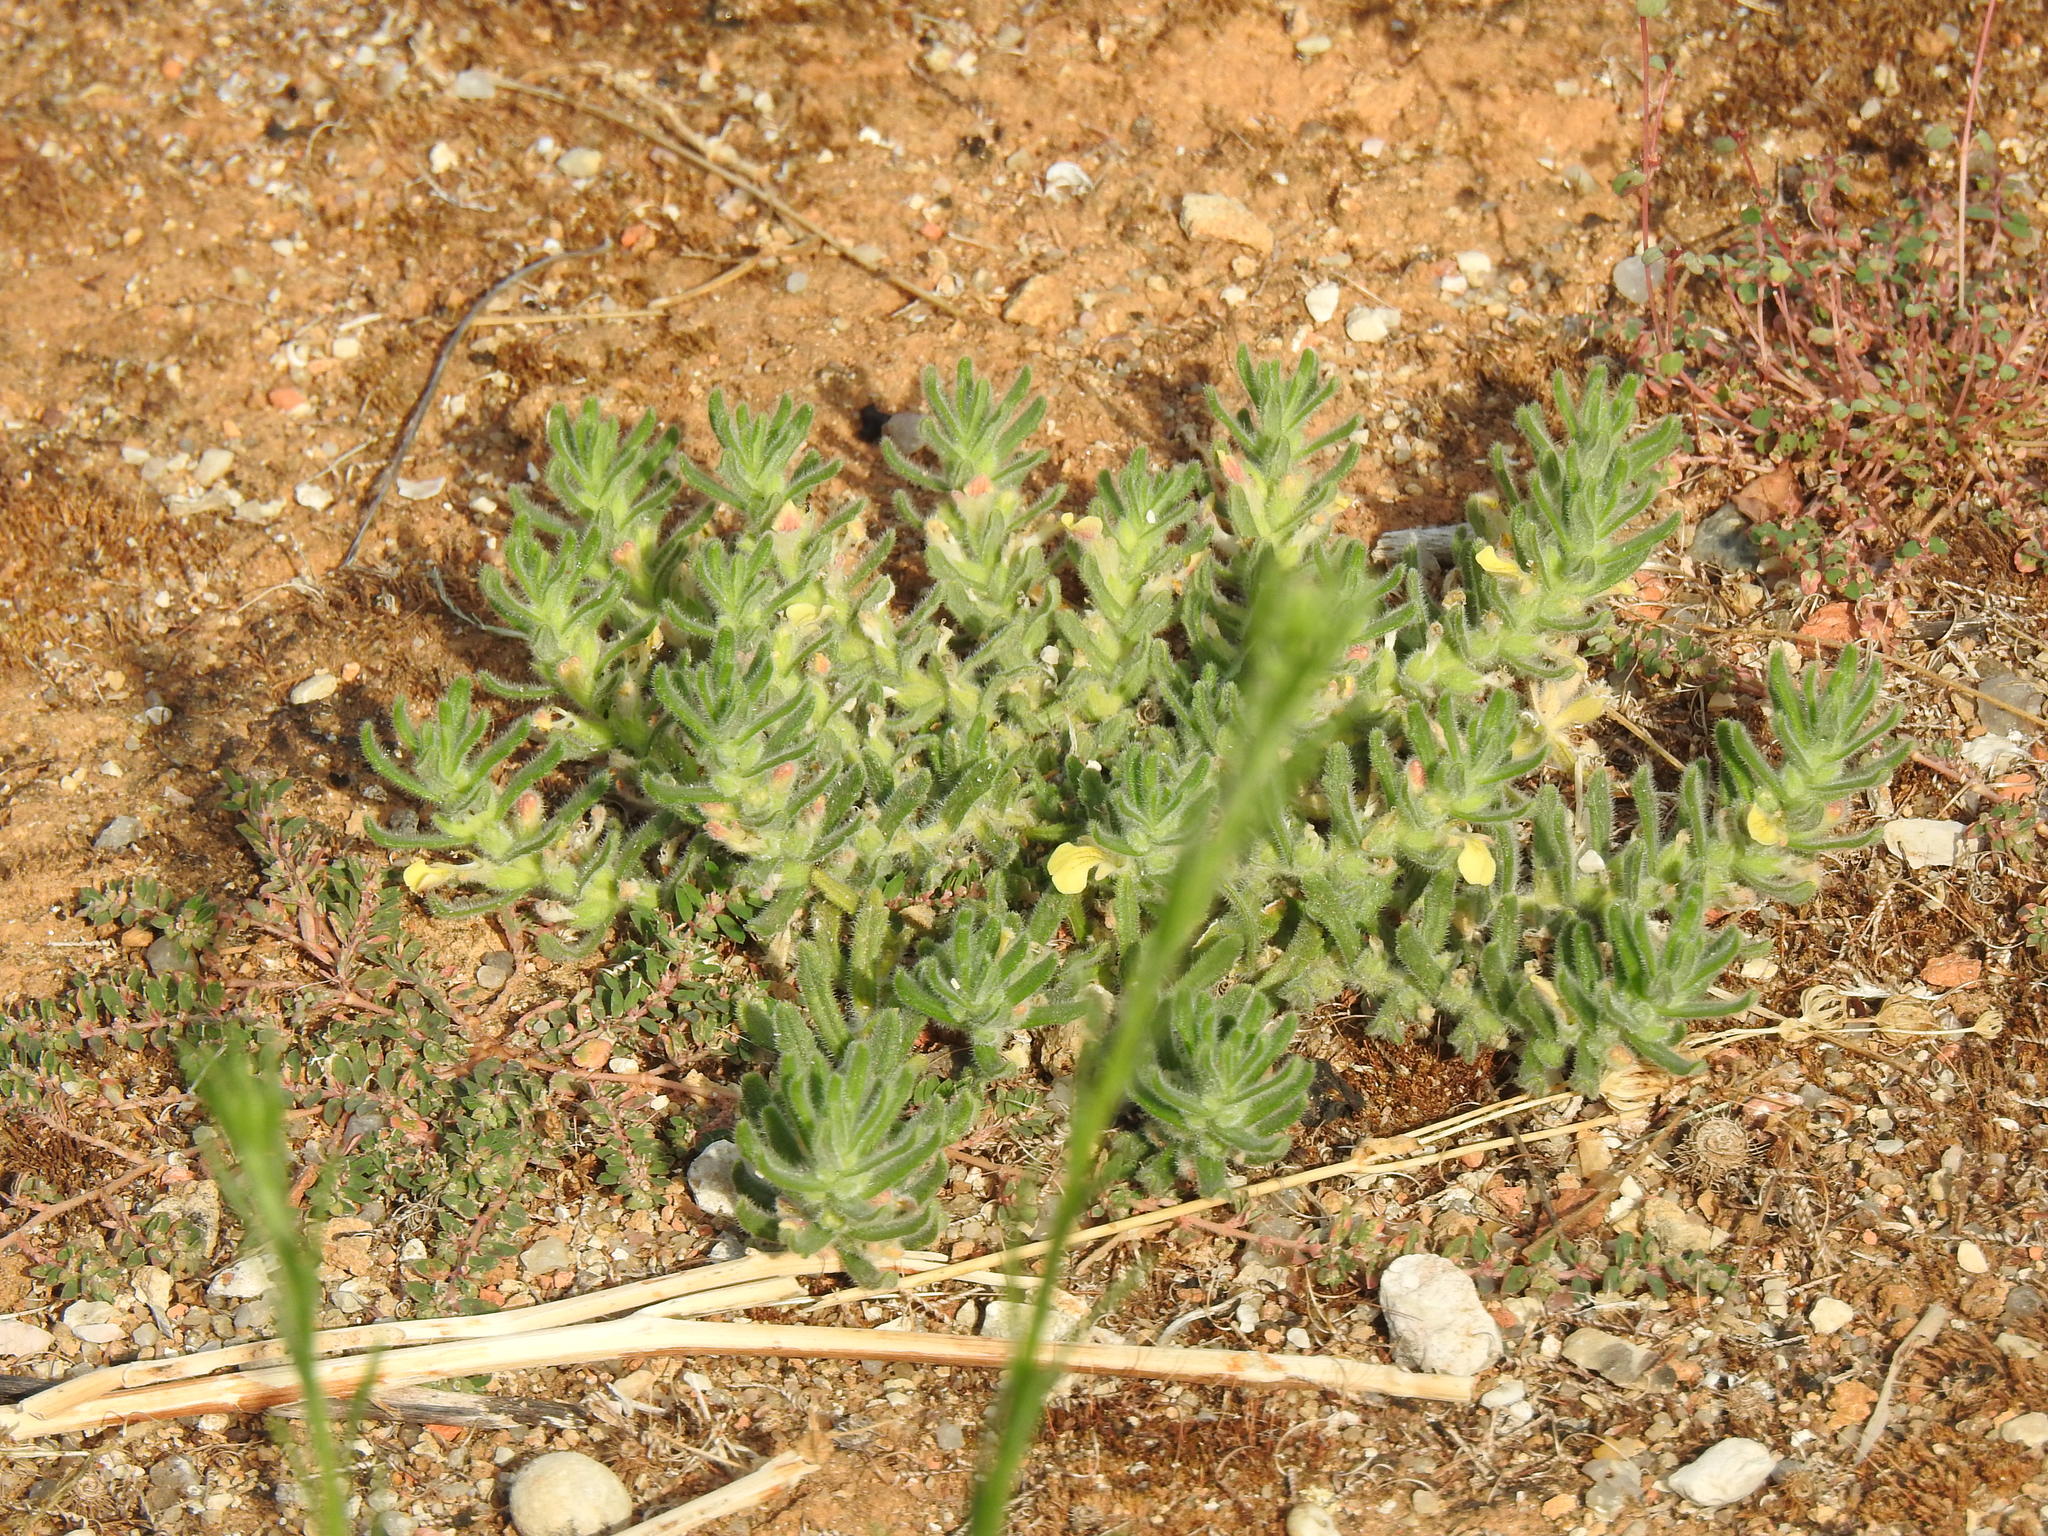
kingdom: Plantae
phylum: Tracheophyta
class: Magnoliopsida
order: Lamiales
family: Lamiaceae
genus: Ajuga
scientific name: Ajuga iva
